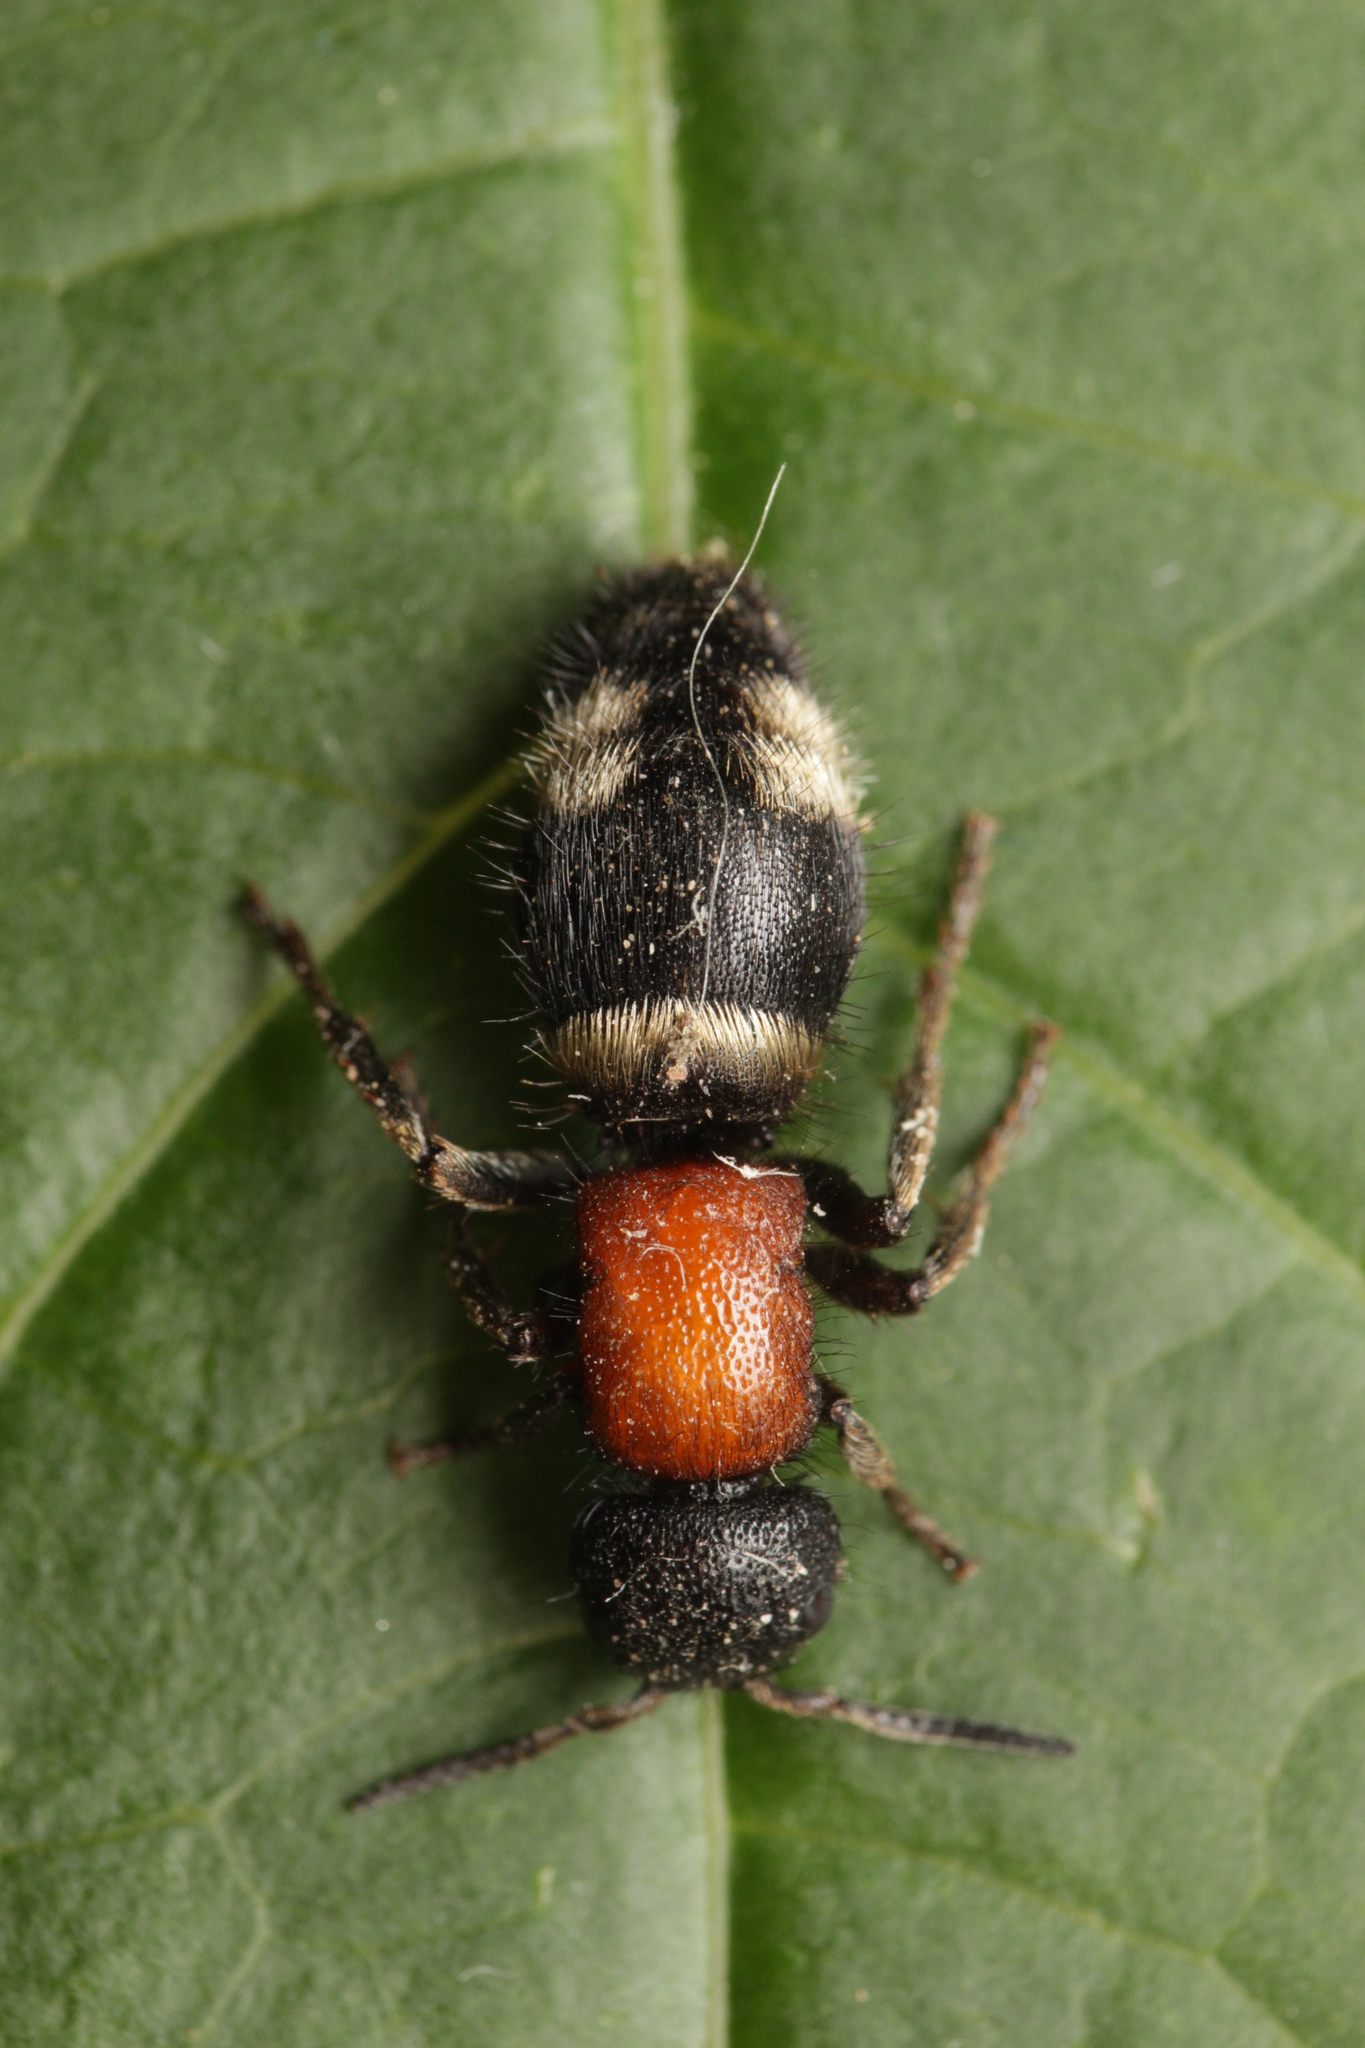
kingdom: Animalia
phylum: Arthropoda
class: Insecta
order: Hymenoptera
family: Mutillidae
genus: Mutilla
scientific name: Mutilla europaea
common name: Large velvet ant
